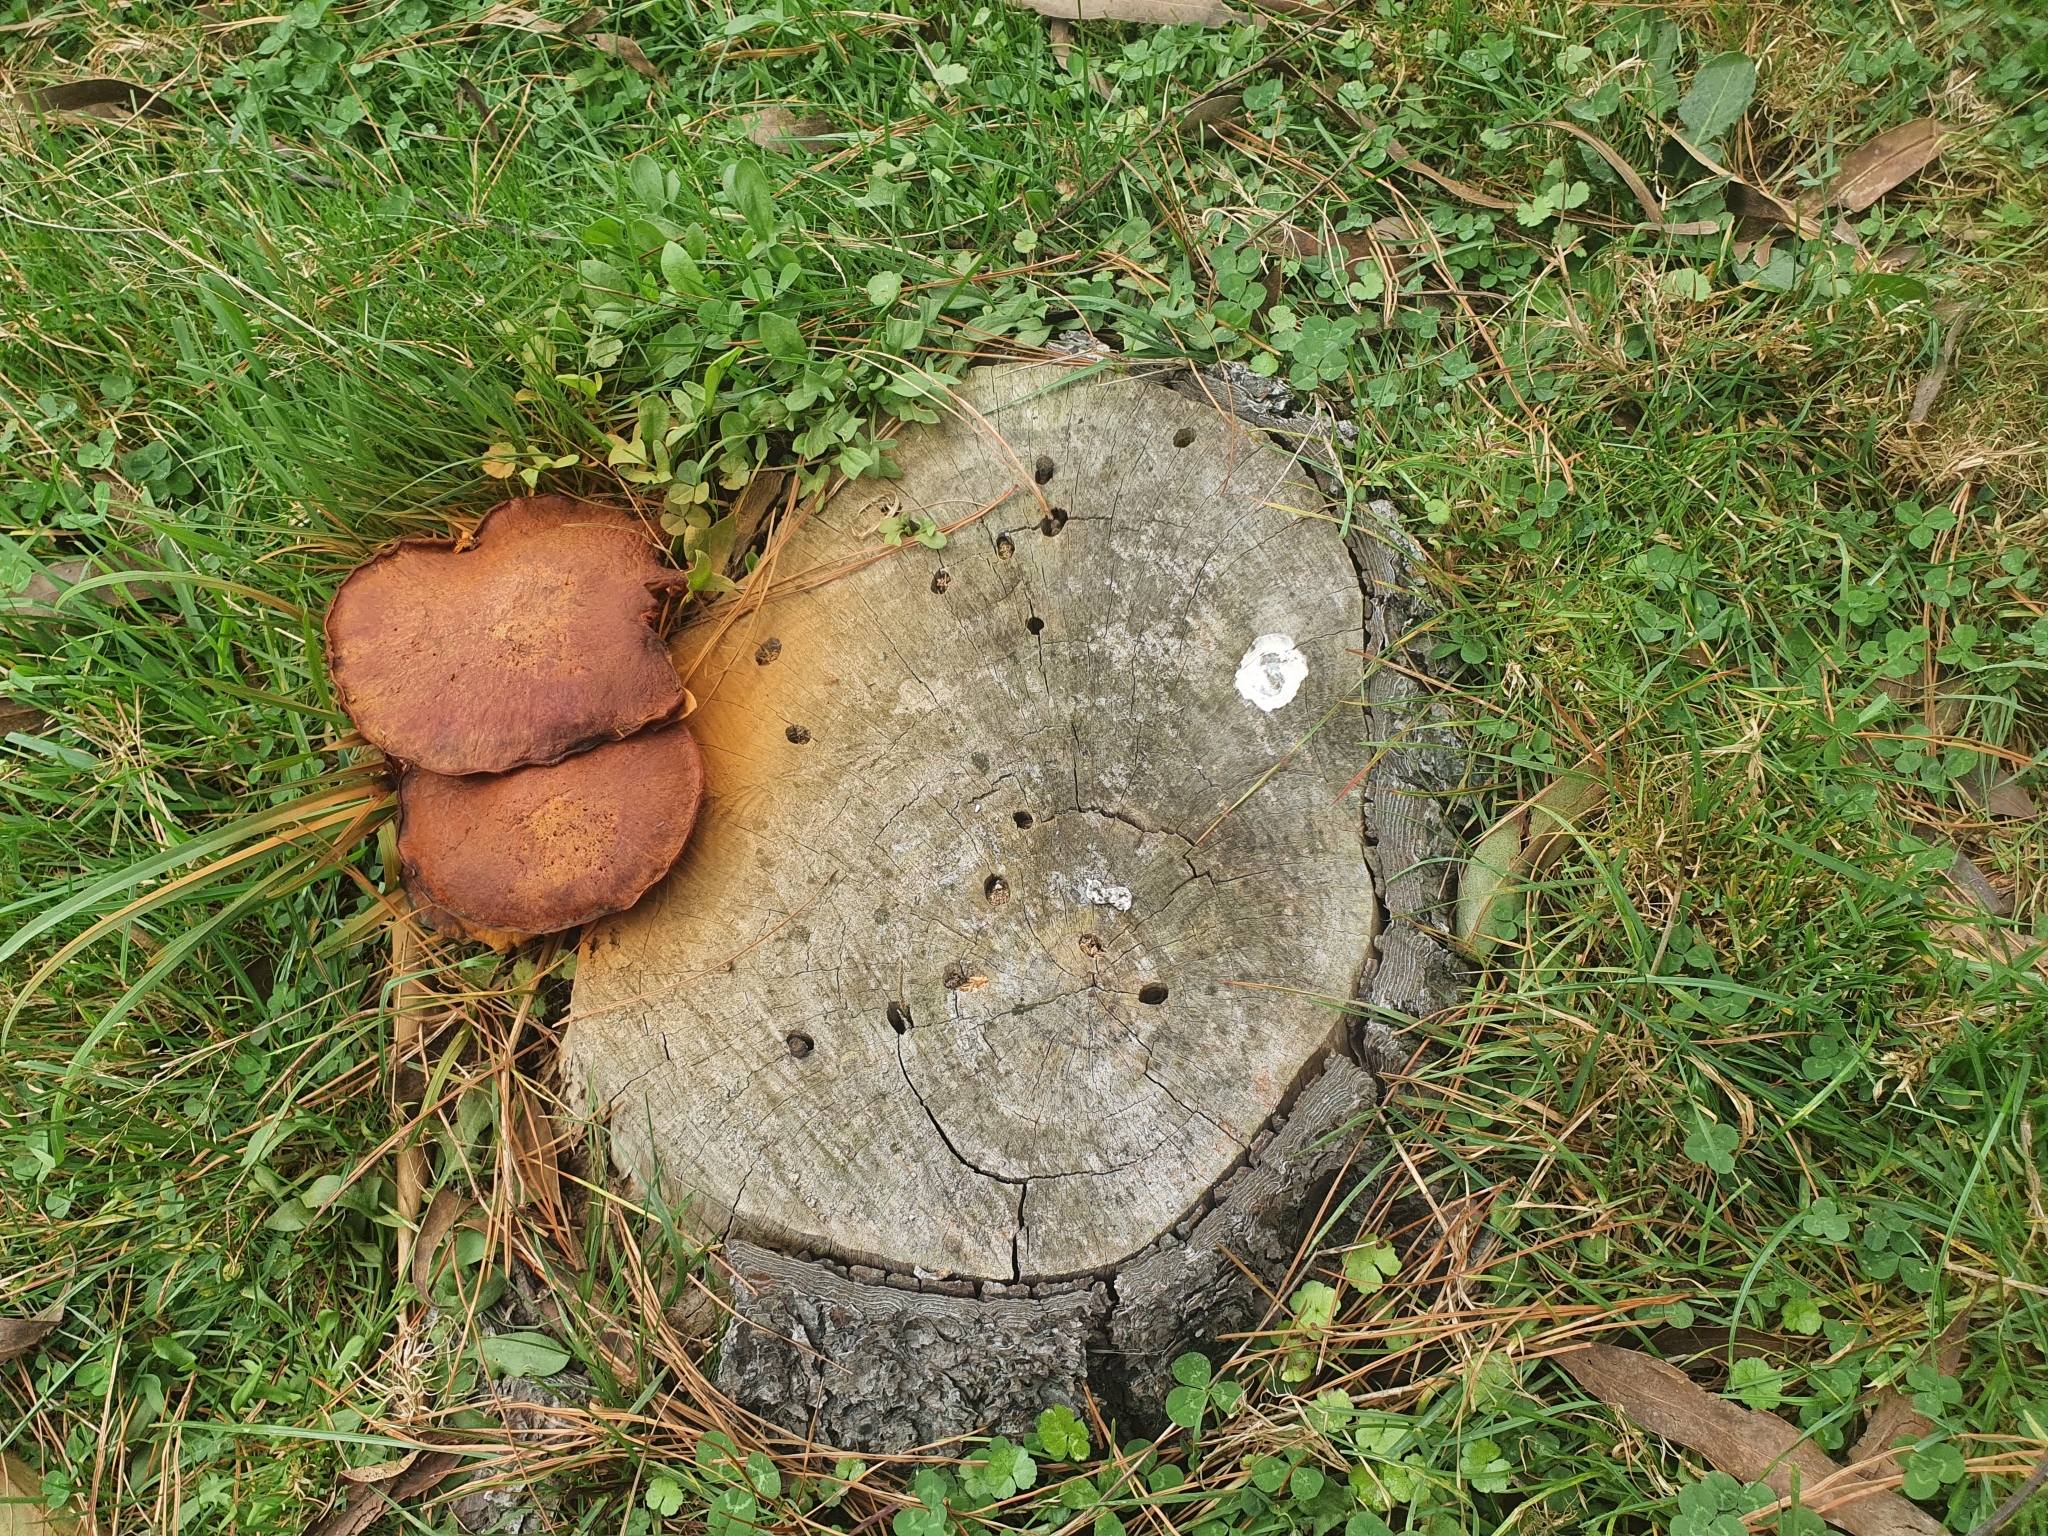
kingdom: Fungi
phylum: Basidiomycota
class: Agaricomycetes
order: Agaricales
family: Hymenogastraceae
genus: Gymnopilus
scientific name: Gymnopilus junonius
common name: Spectacular rustgill
